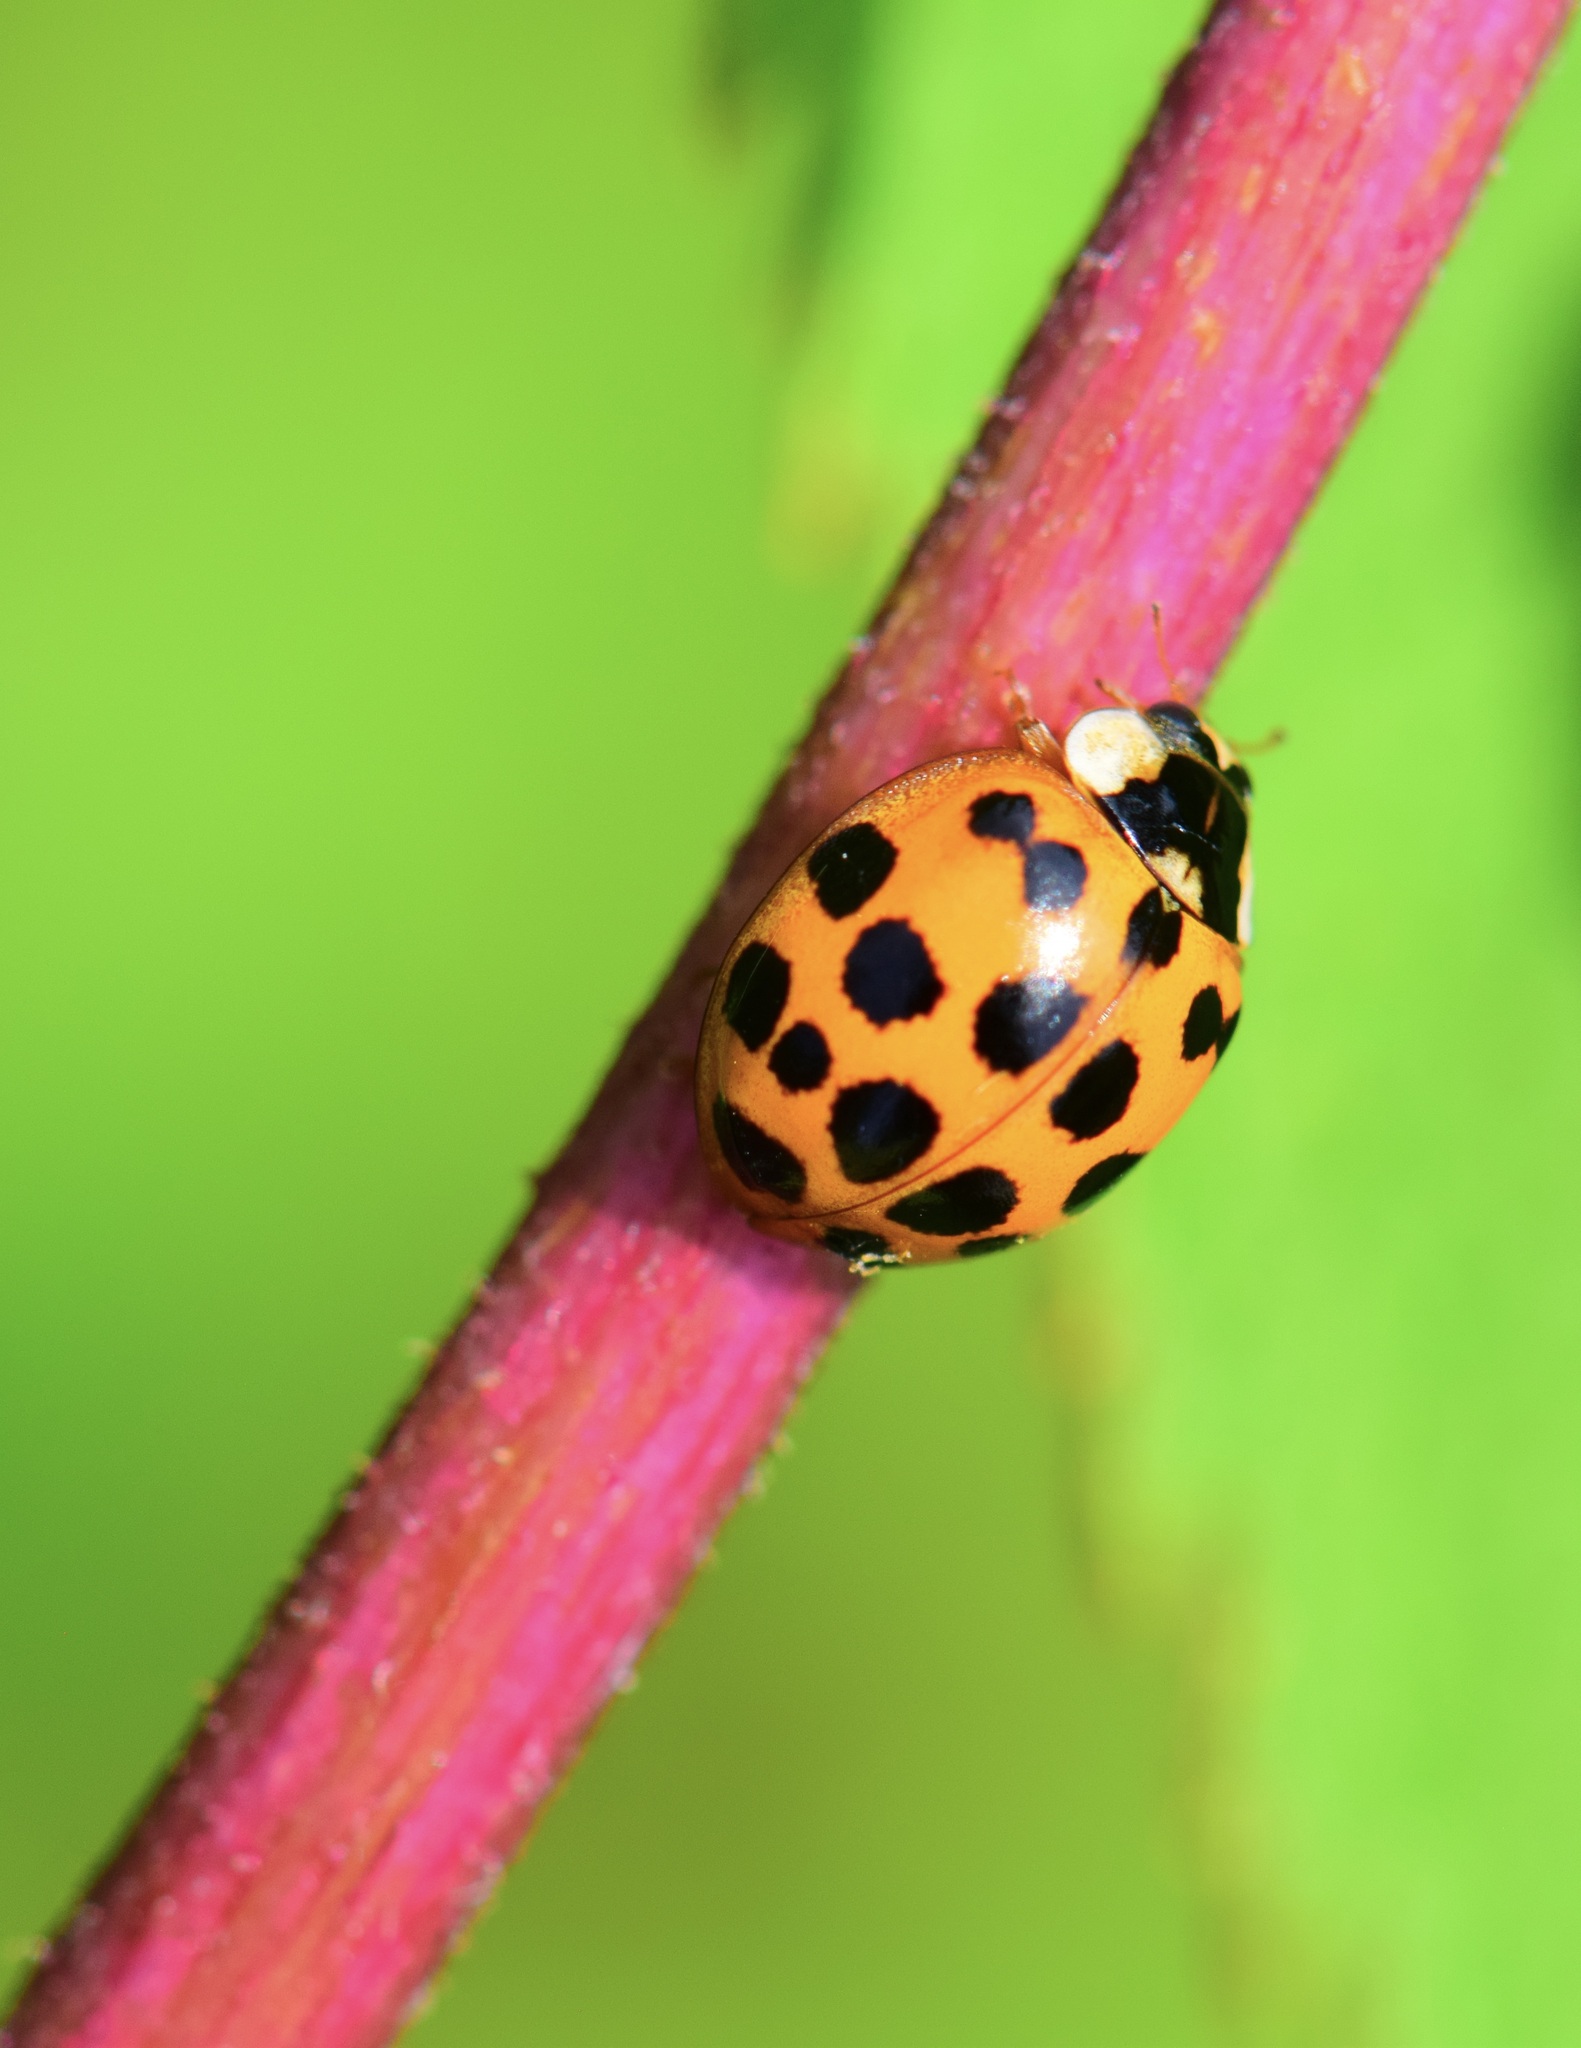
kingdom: Animalia
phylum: Arthropoda
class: Insecta
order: Coleoptera
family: Coccinellidae
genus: Harmonia
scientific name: Harmonia axyridis
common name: Harlequin ladybird
